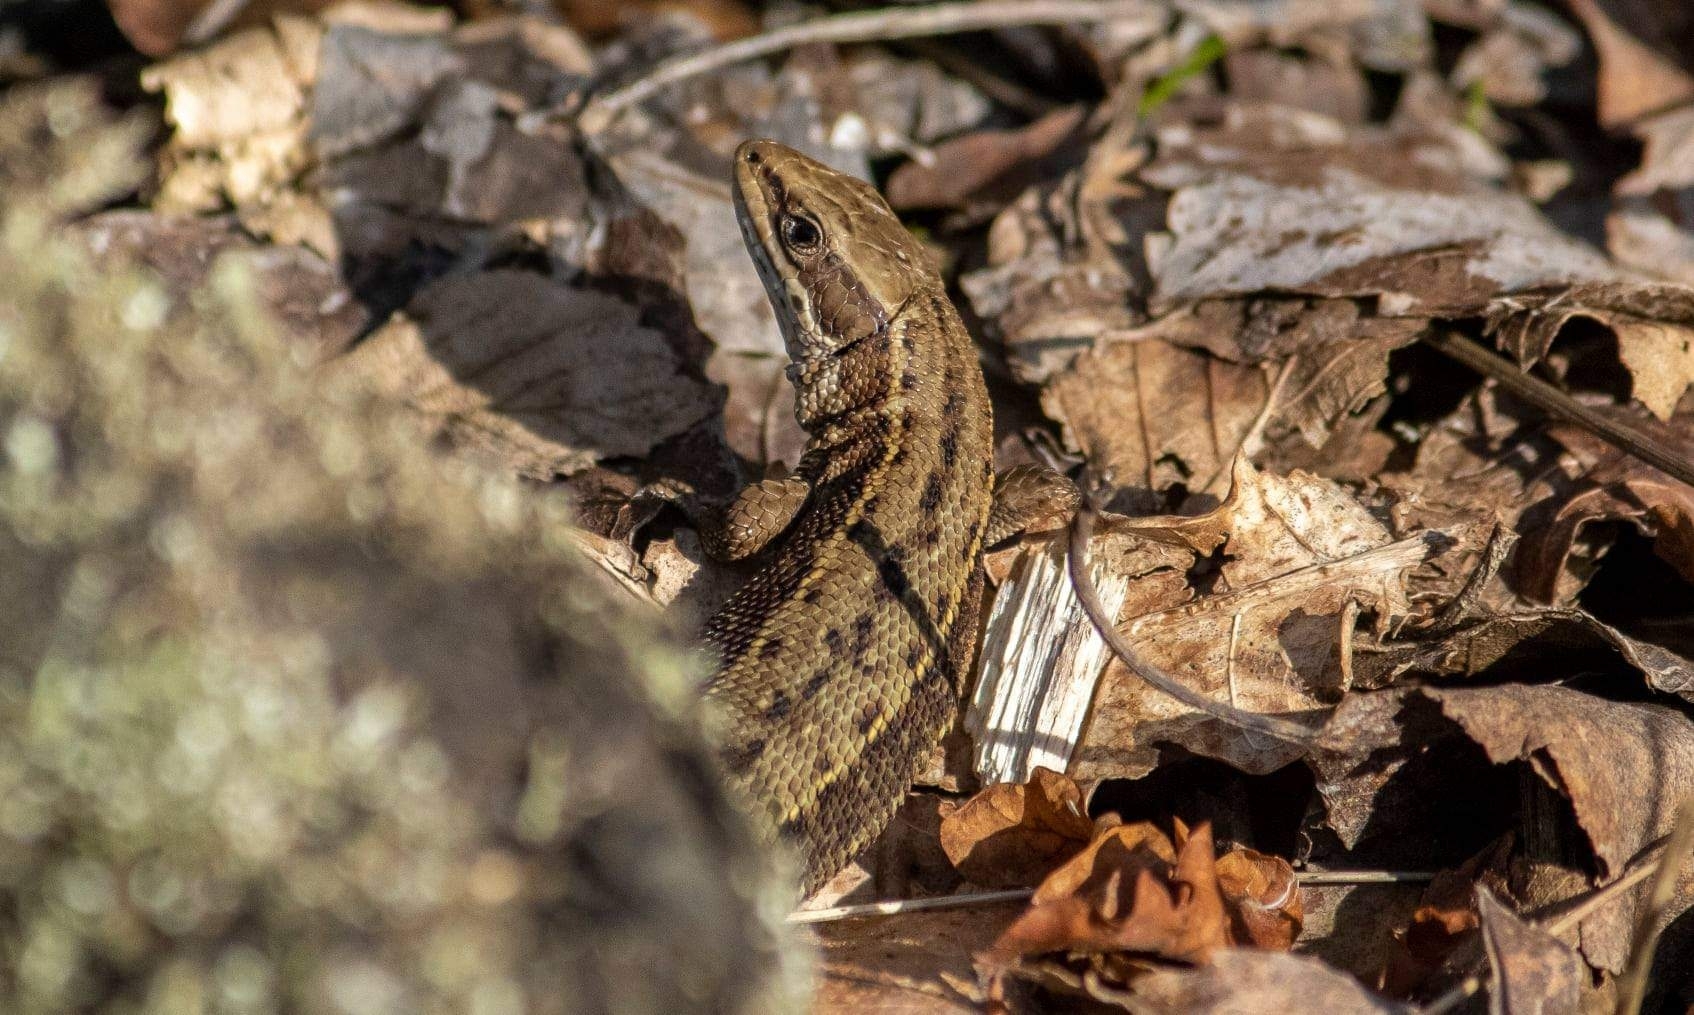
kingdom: Animalia
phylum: Chordata
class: Squamata
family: Lacertidae
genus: Zootoca
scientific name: Zootoca vivipara
